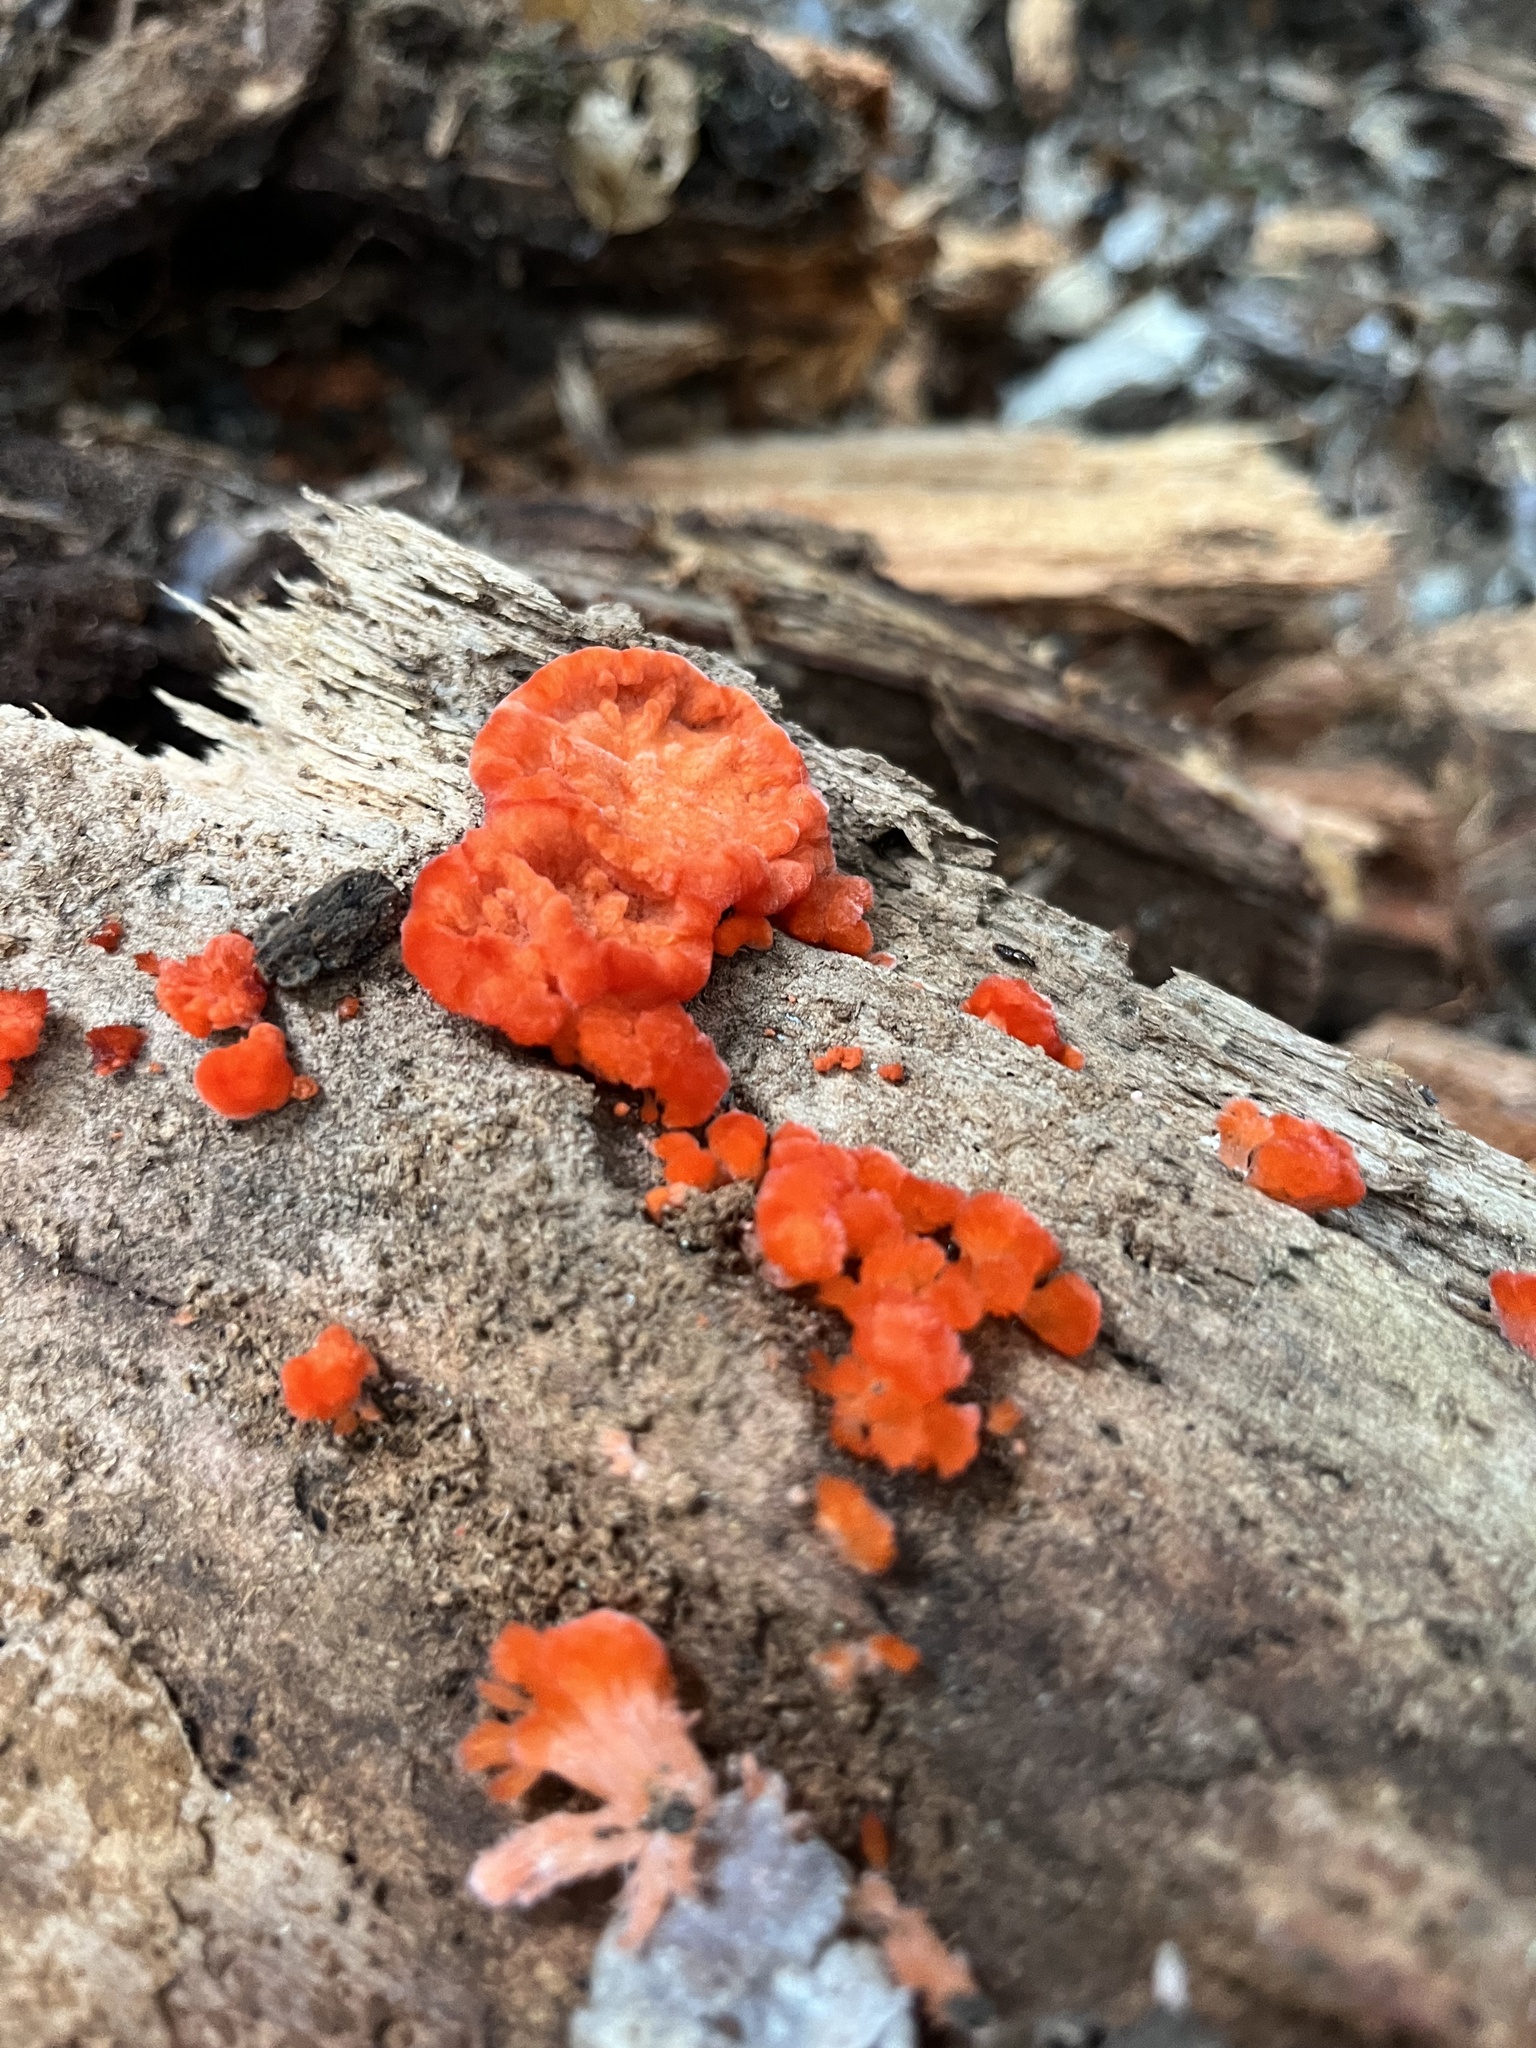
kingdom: Fungi
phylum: Basidiomycota
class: Agaricomycetes
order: Polyporales
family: Incrustoporiaceae
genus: Tyromyces
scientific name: Tyromyces pulcherrimus
